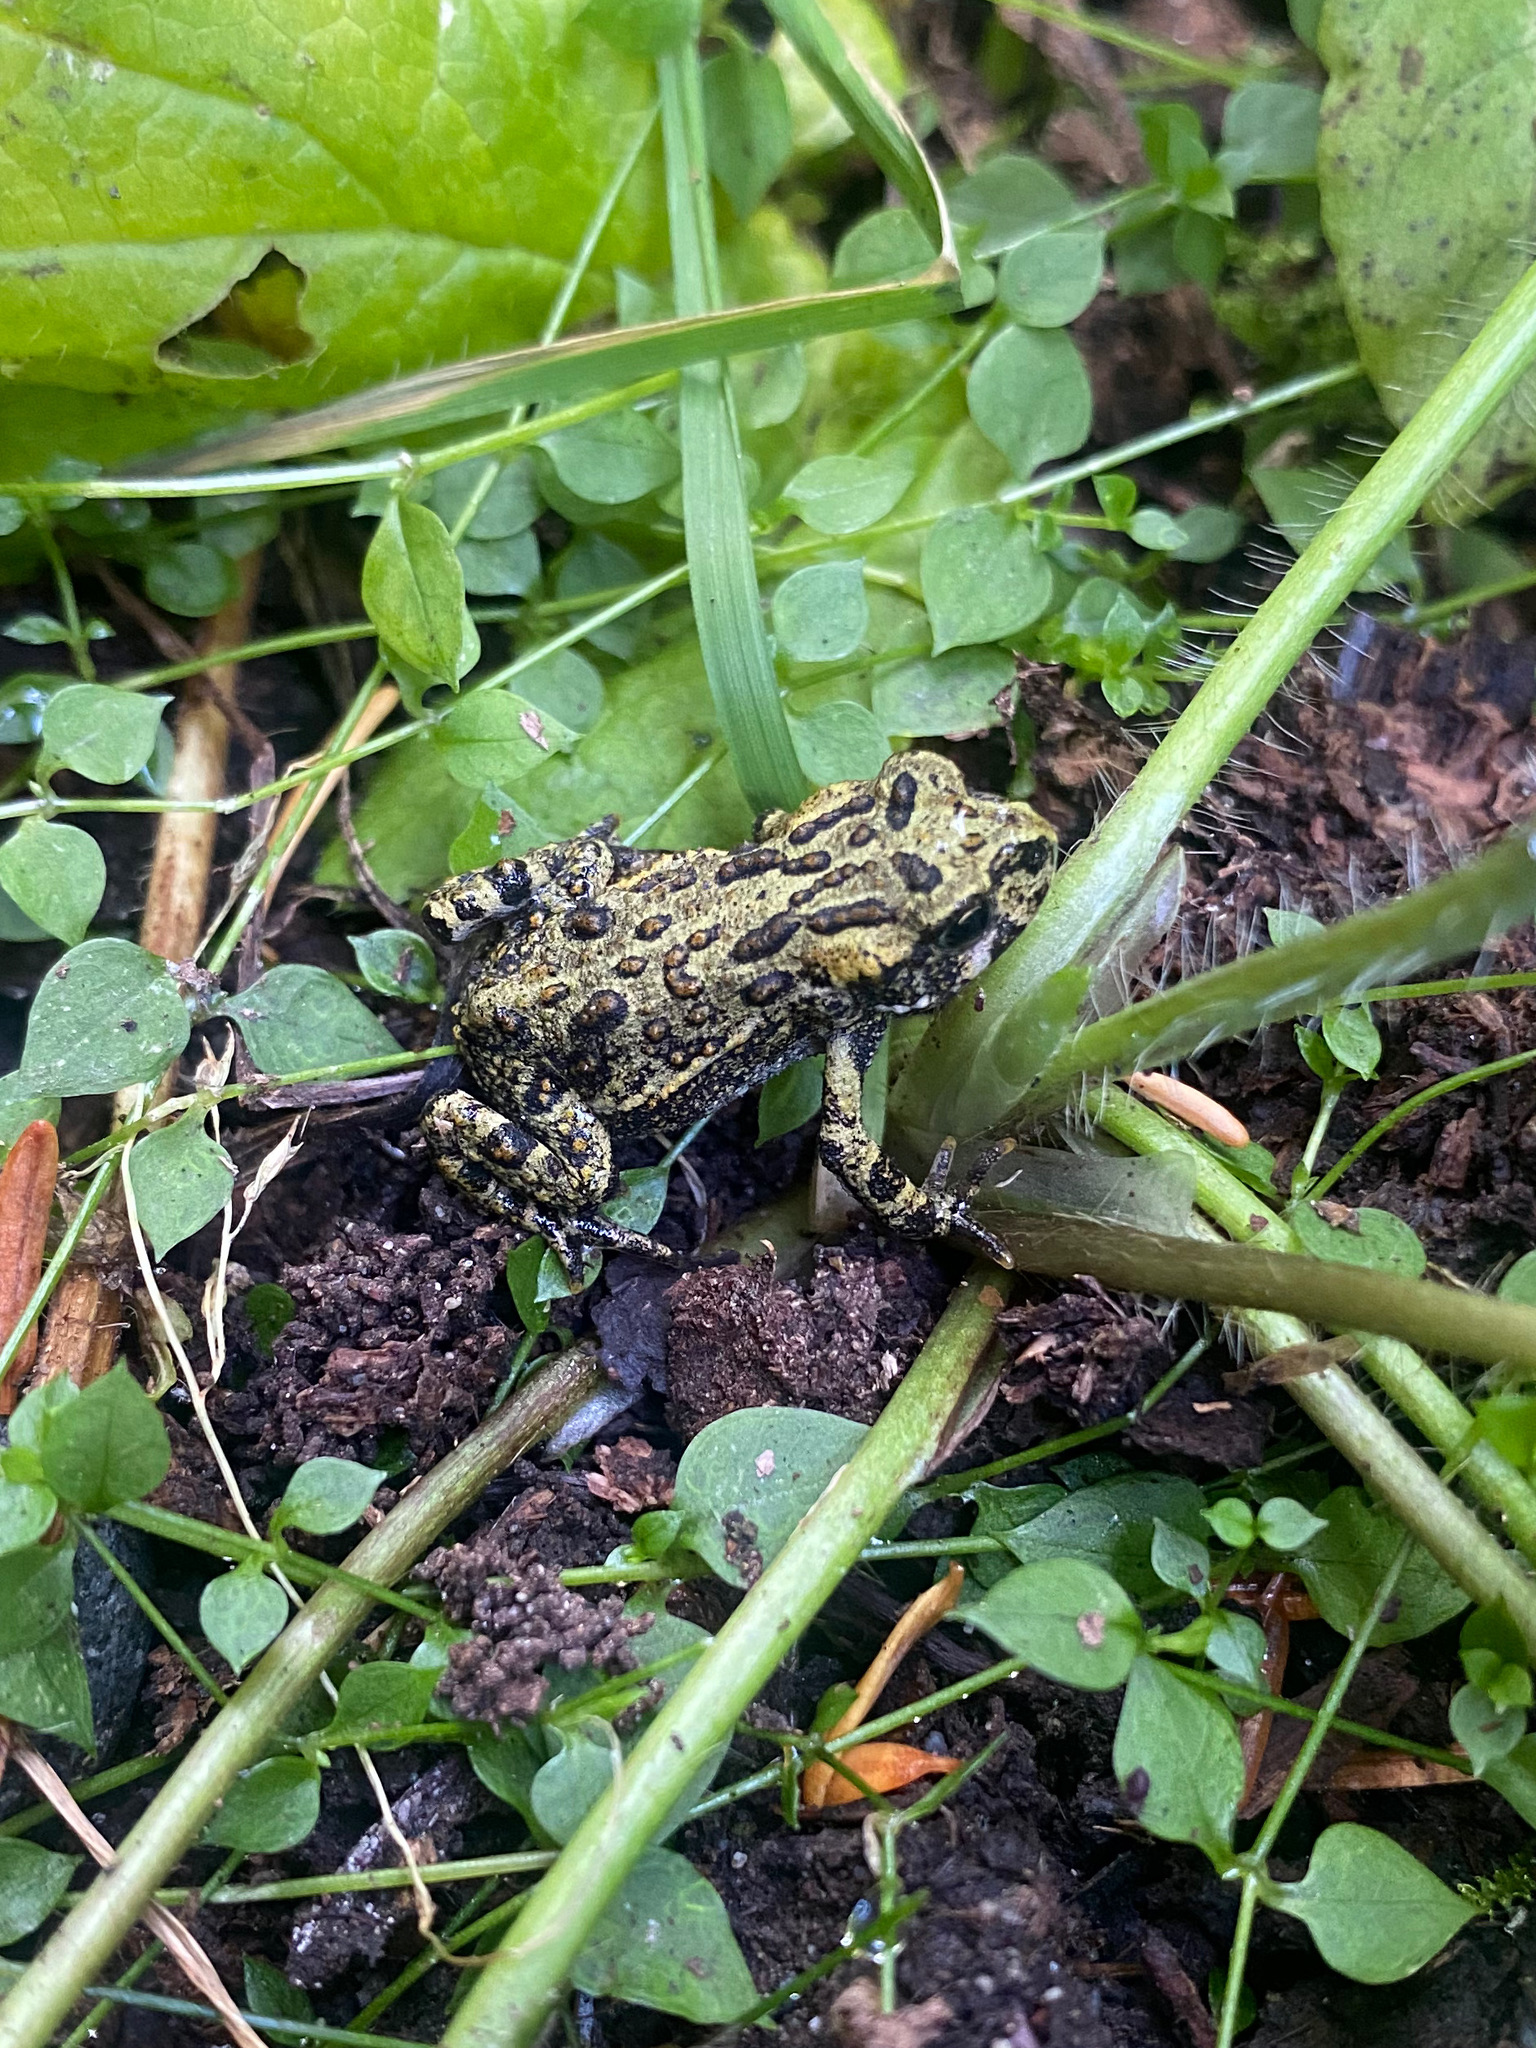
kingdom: Animalia
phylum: Chordata
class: Amphibia
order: Anura
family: Bufonidae
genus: Anaxyrus
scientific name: Anaxyrus boreas
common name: Western toad
